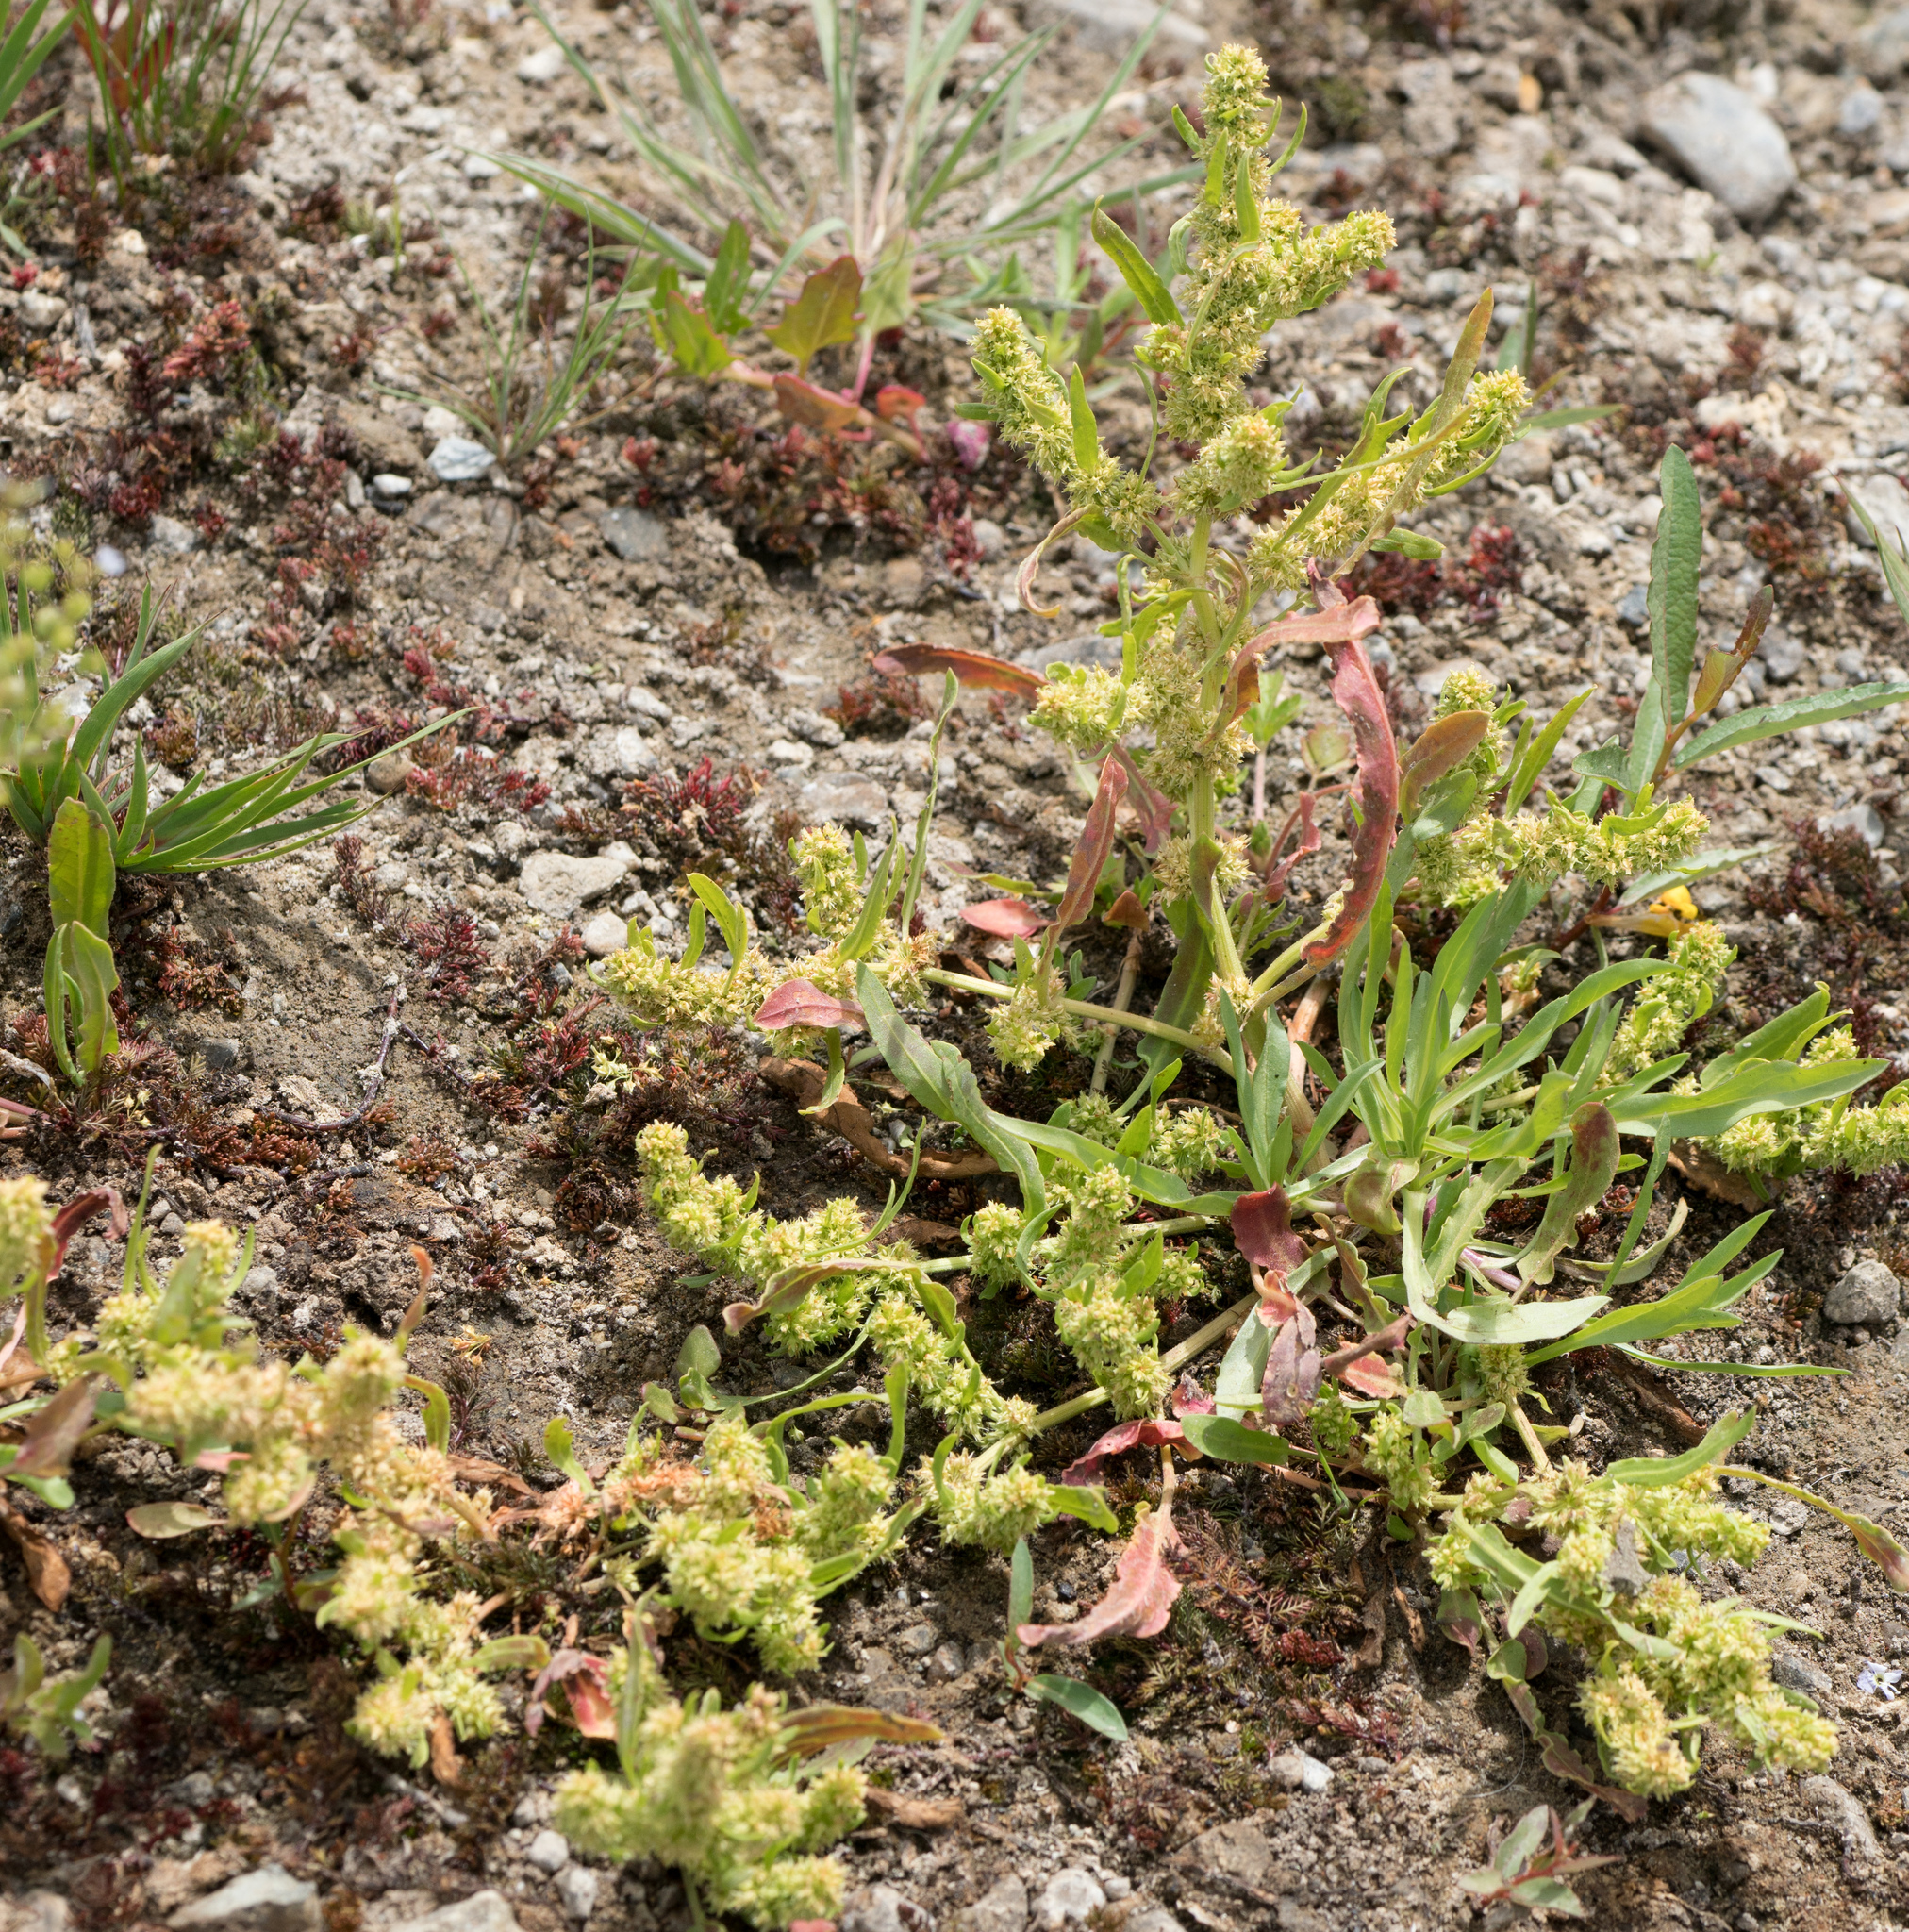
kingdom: Plantae
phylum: Tracheophyta
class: Magnoliopsida
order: Caryophyllales
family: Polygonaceae
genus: Rumex
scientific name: Rumex fueginus
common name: American golden dock
